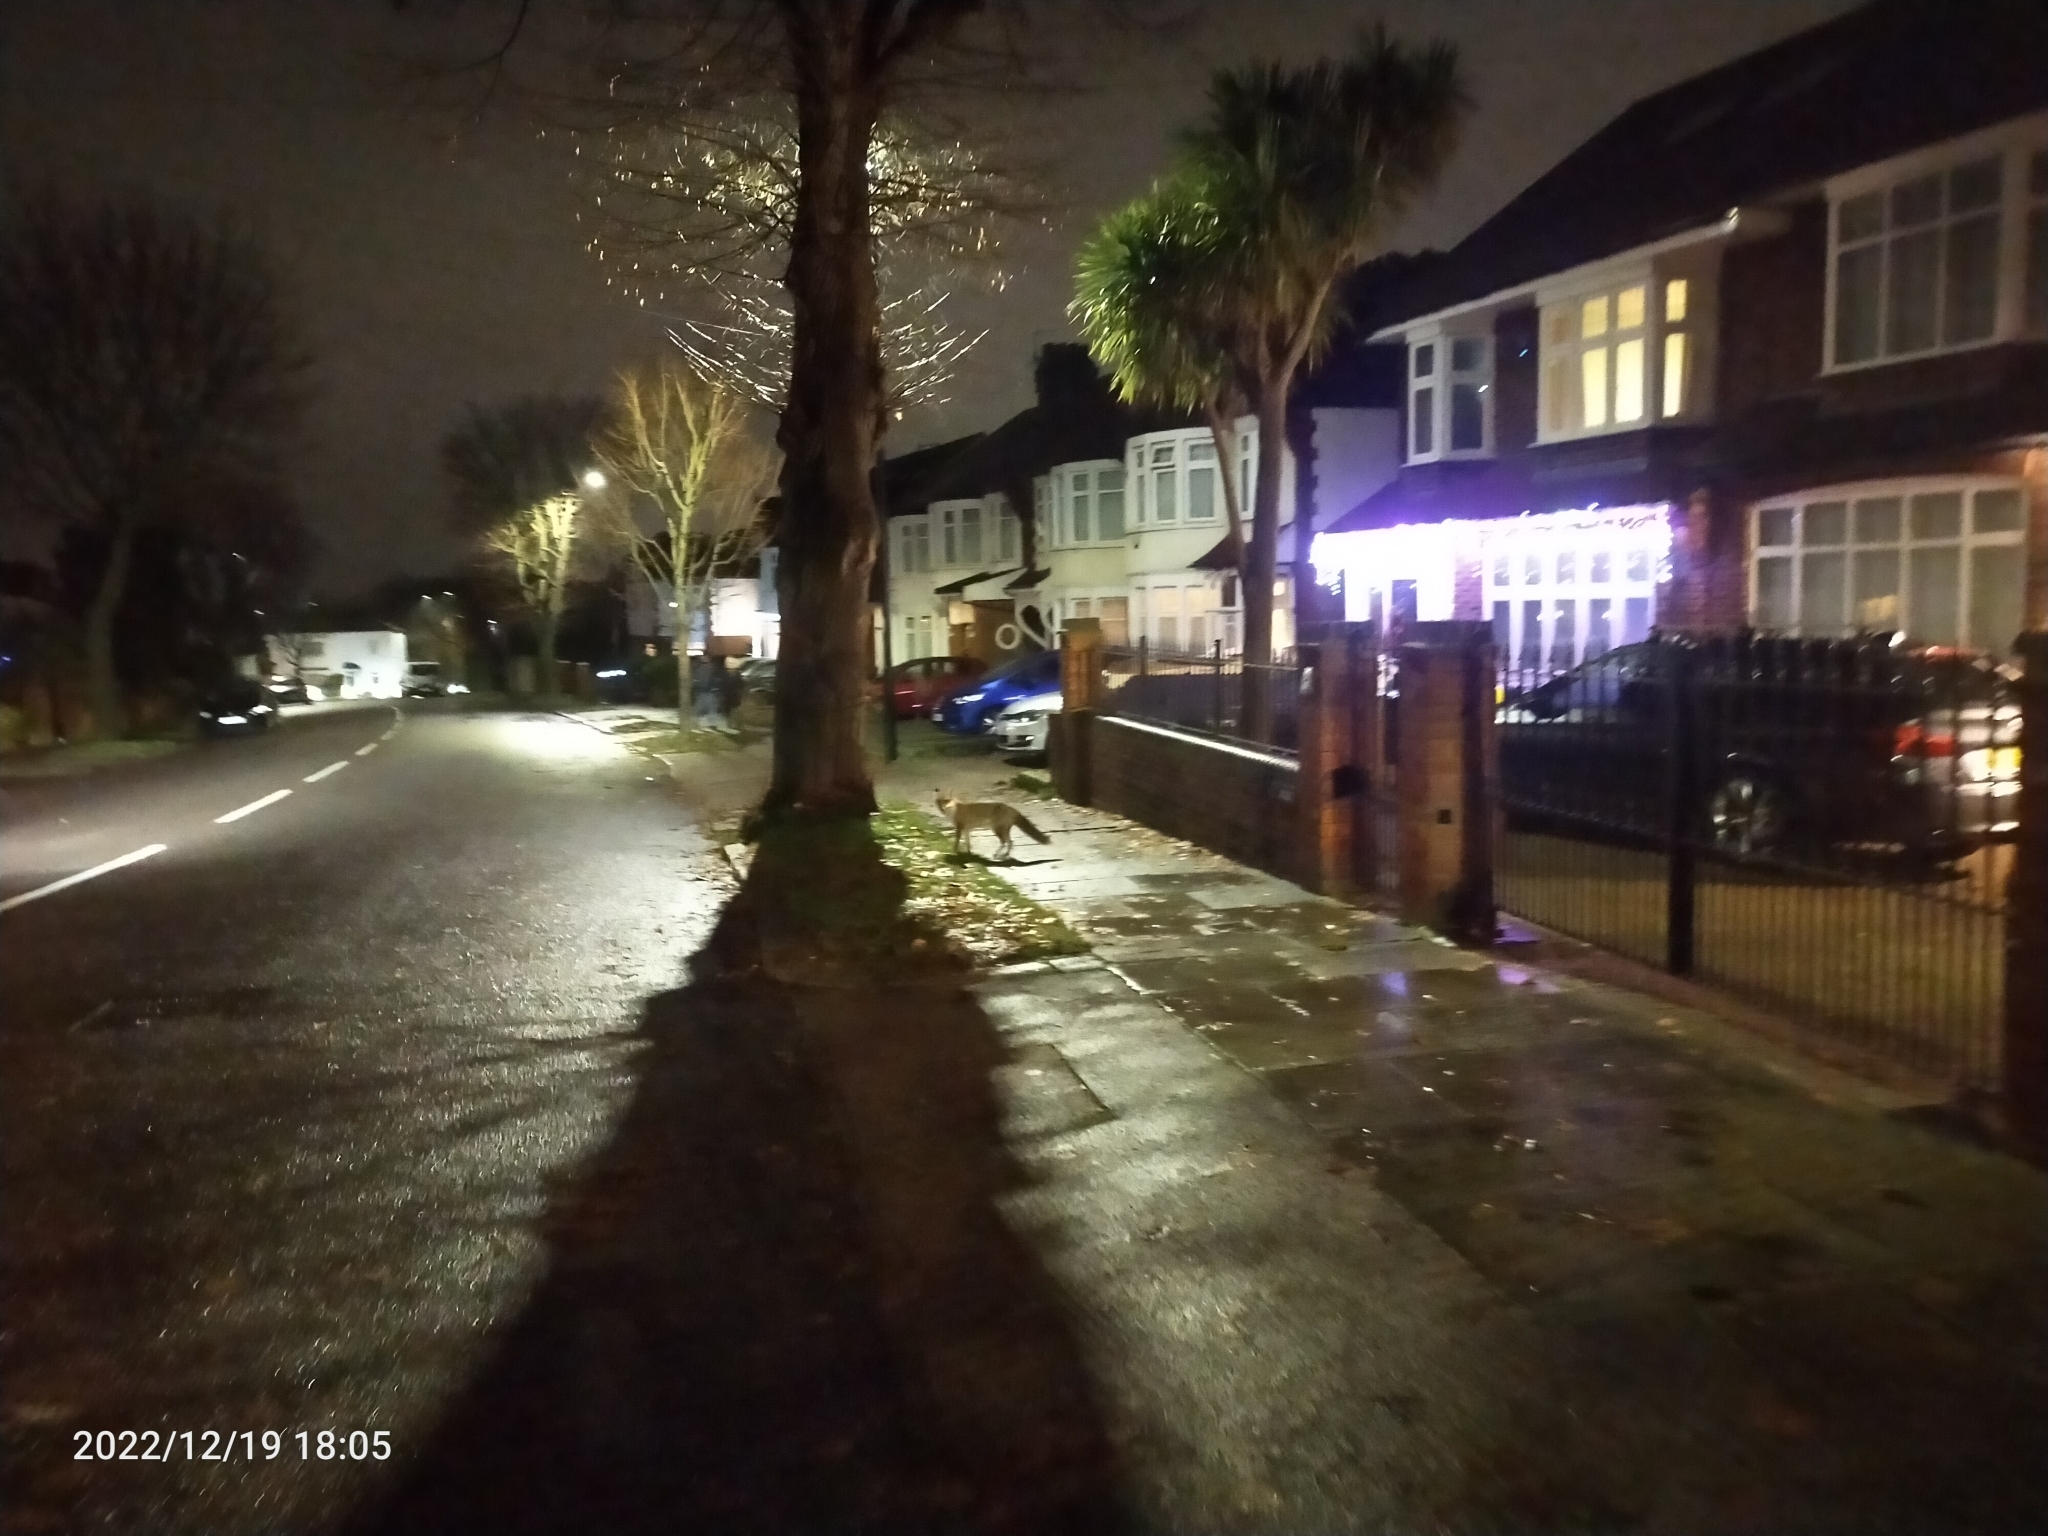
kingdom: Animalia
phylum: Chordata
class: Mammalia
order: Carnivora
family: Canidae
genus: Vulpes
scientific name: Vulpes vulpes
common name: Red fox
